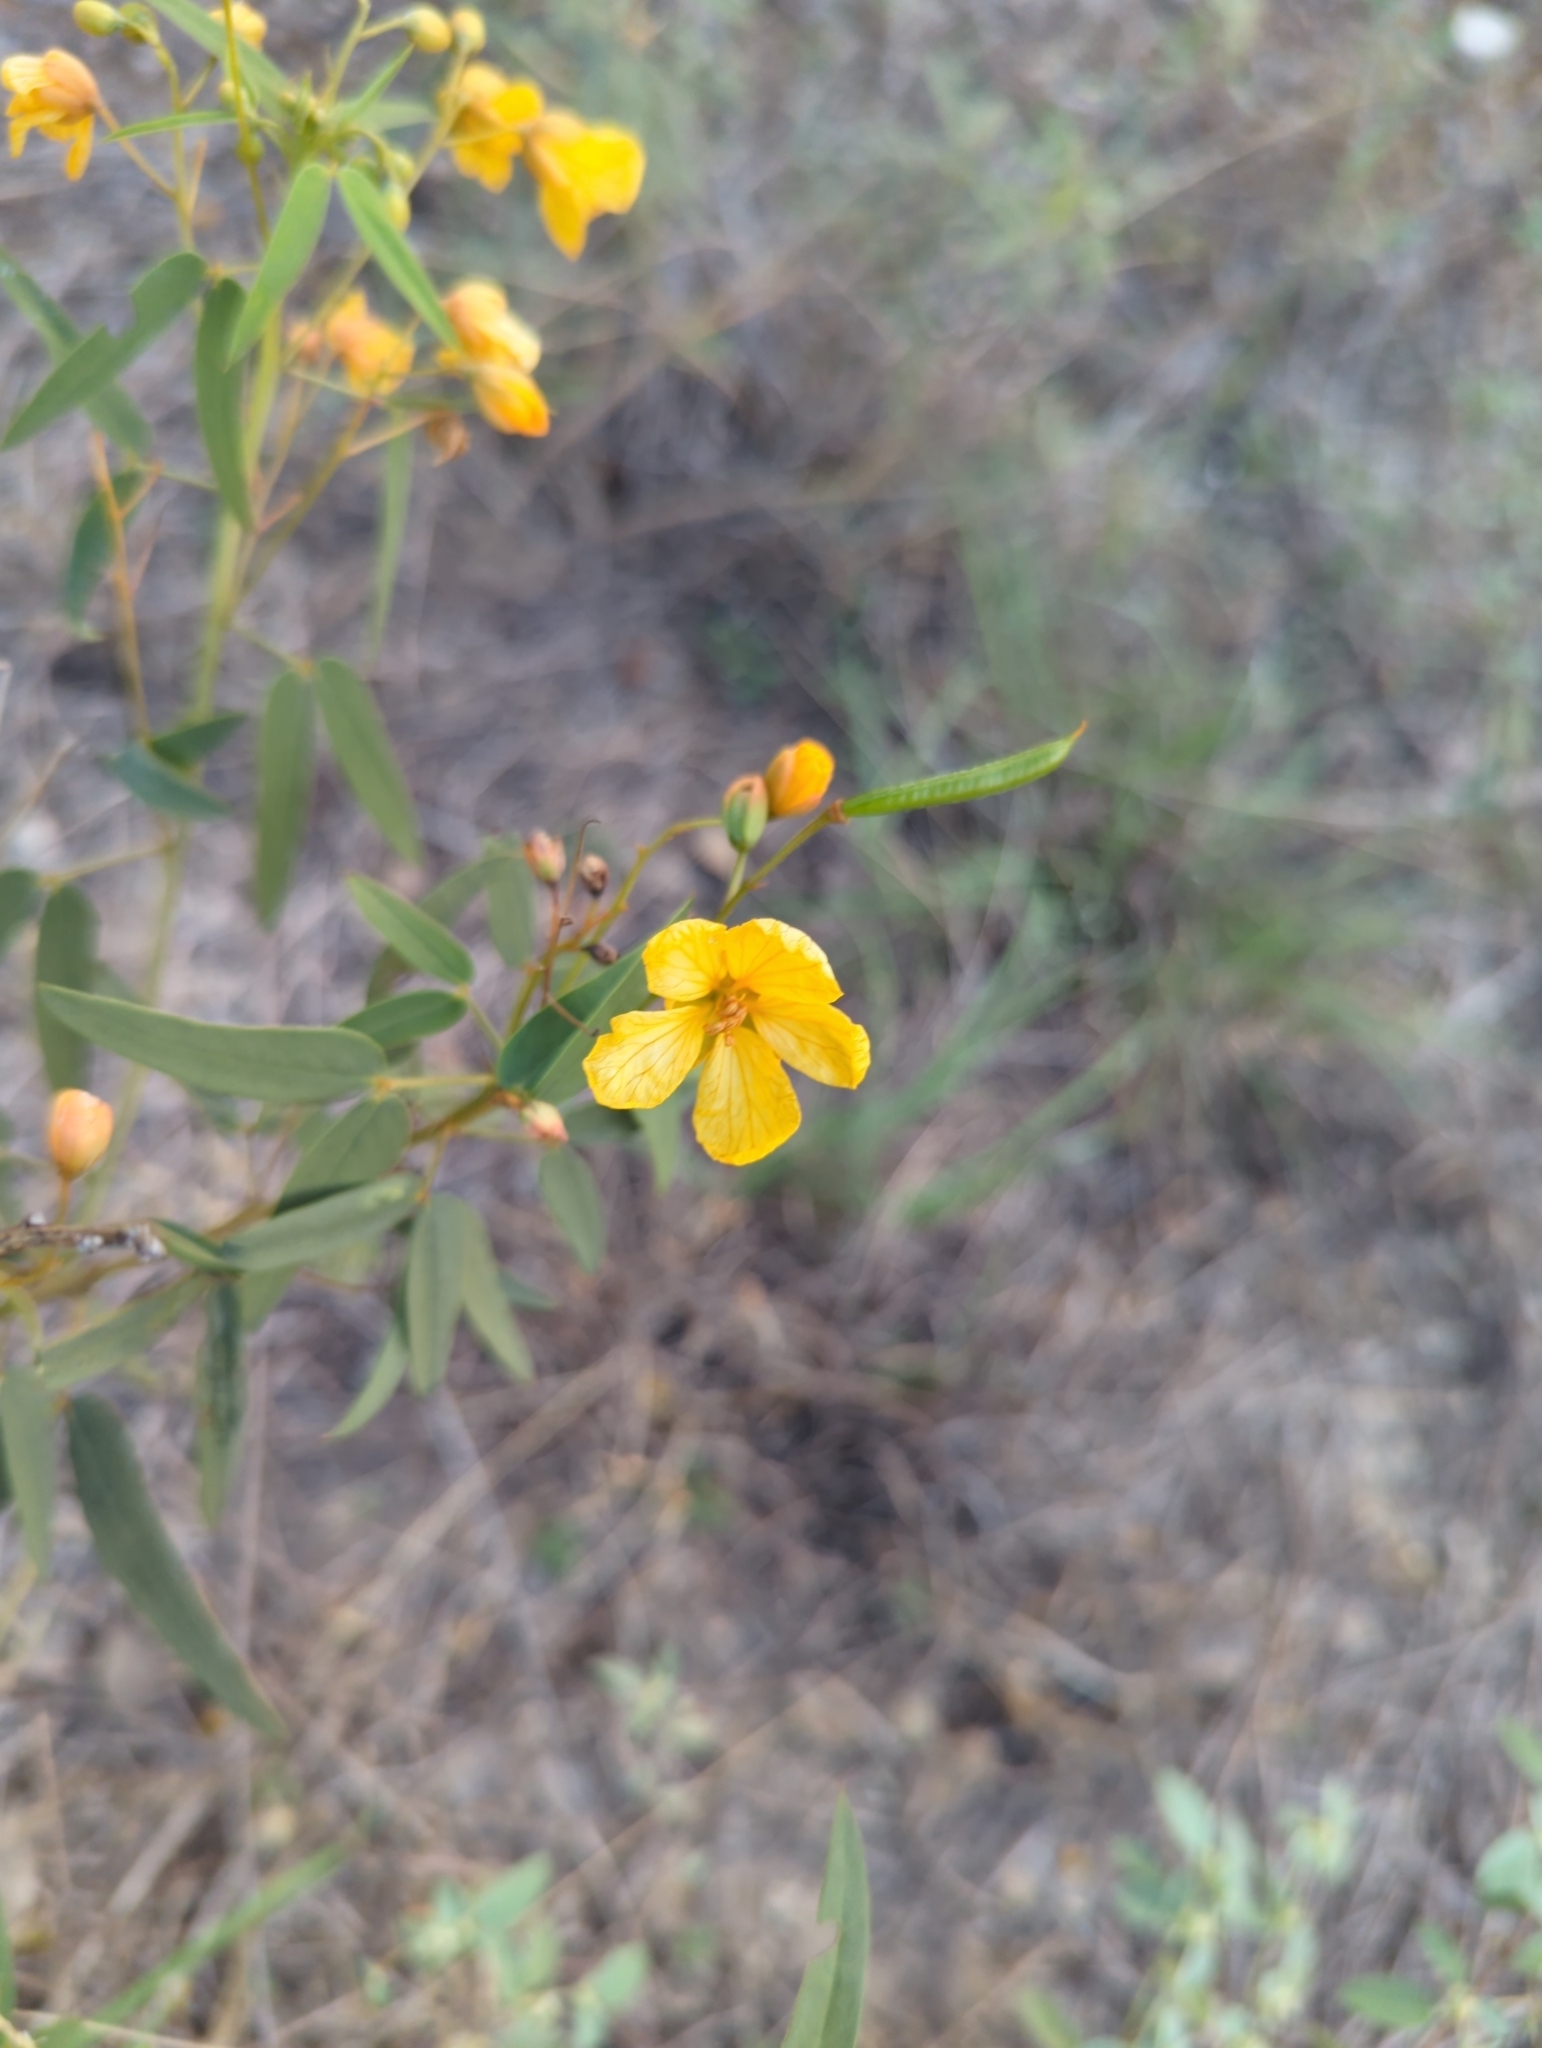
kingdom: Plantae
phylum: Tracheophyta
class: Magnoliopsida
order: Fabales
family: Fabaceae
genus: Senna
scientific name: Senna roemeriana
